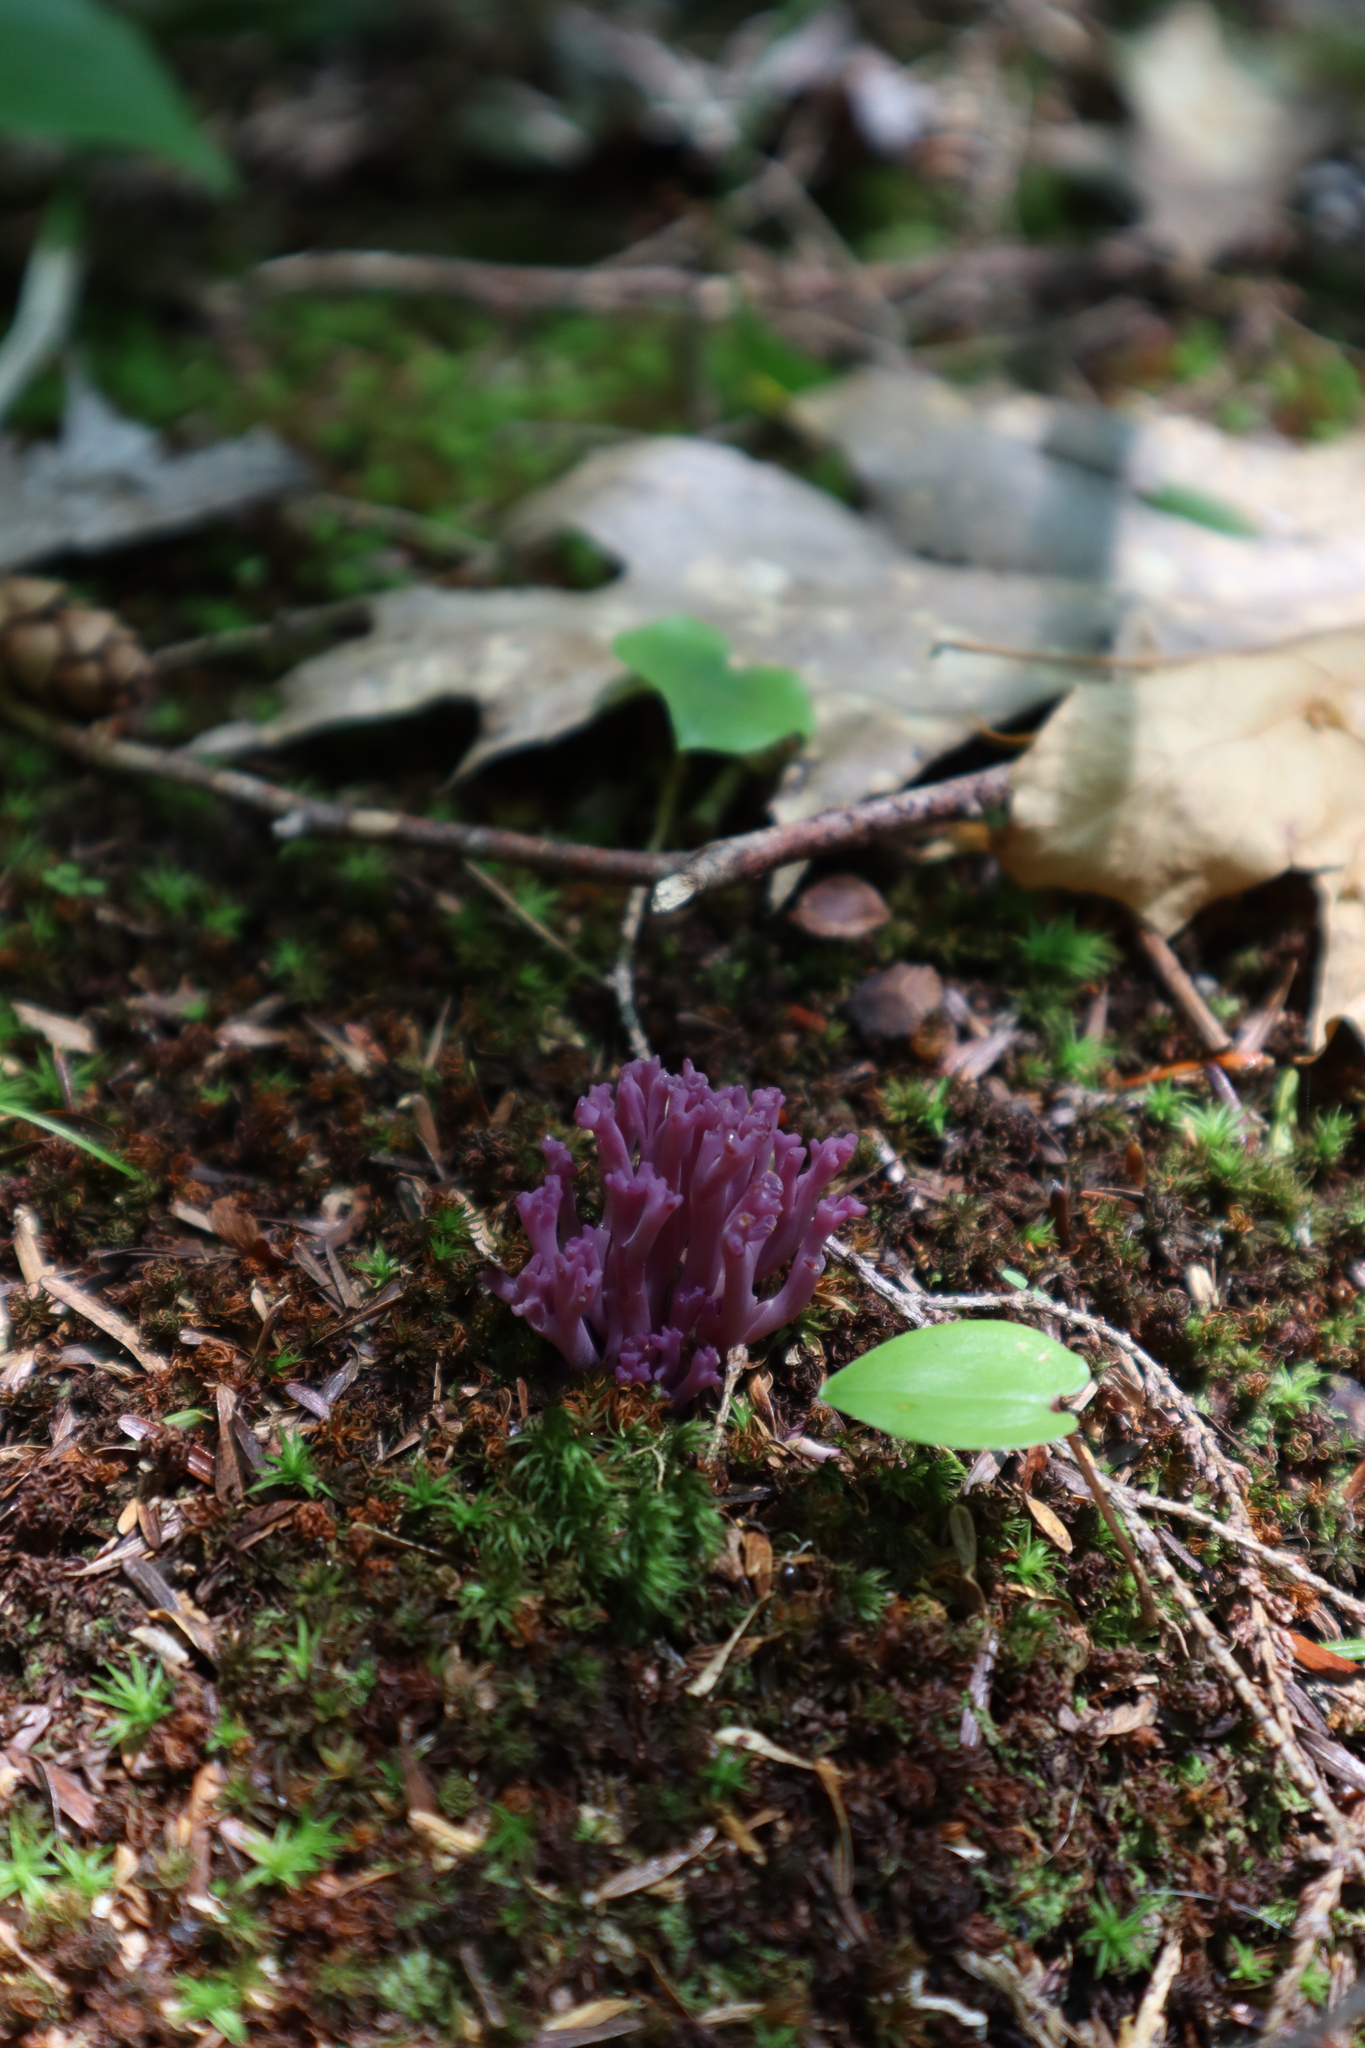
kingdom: Fungi
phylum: Basidiomycota
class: Agaricomycetes
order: Agaricales
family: Clavariaceae
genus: Clavaria
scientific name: Clavaria zollingeri
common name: Violet coral
